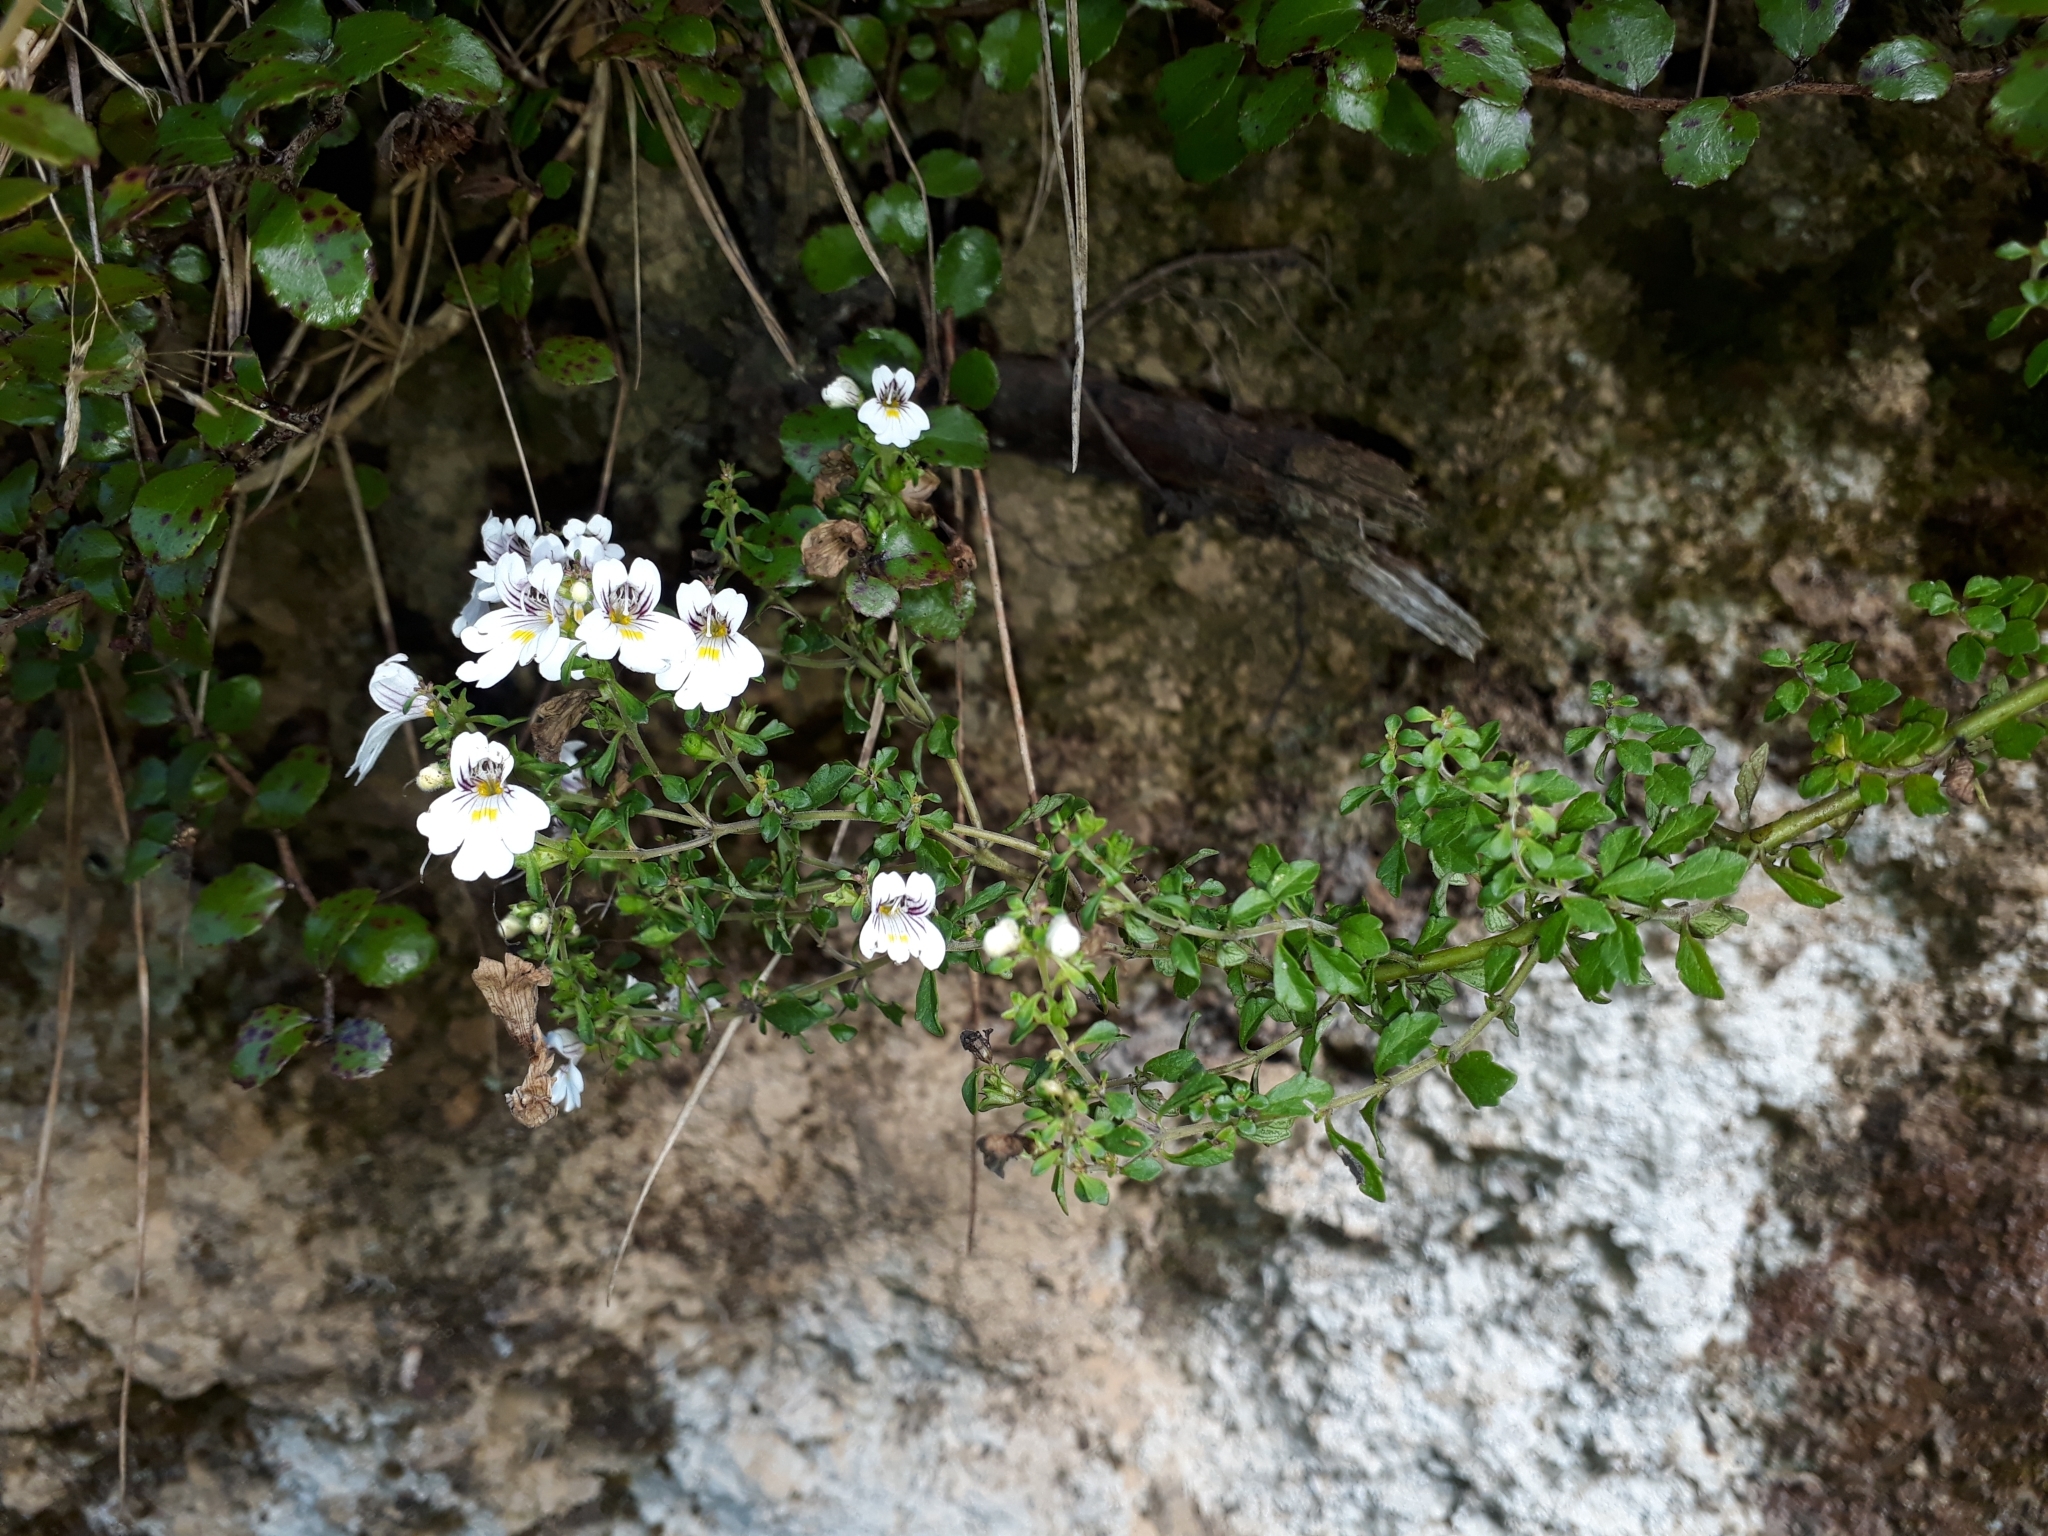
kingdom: Plantae
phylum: Tracheophyta
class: Magnoliopsida
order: Lamiales
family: Orobanchaceae
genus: Euphrasia
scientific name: Euphrasia cuneata
